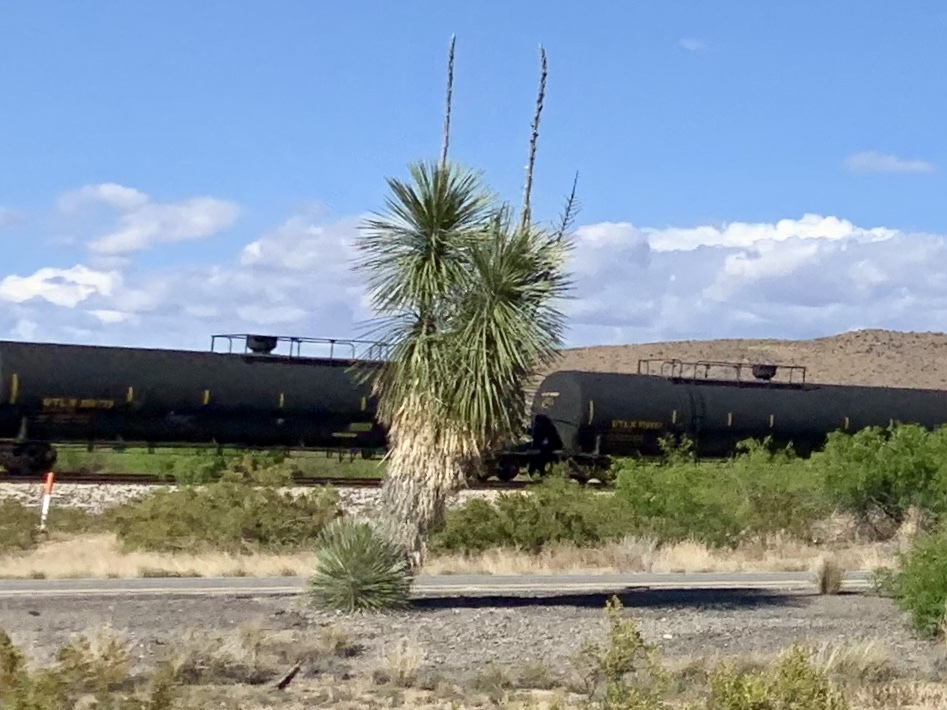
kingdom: Plantae
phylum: Tracheophyta
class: Liliopsida
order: Asparagales
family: Asparagaceae
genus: Yucca
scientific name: Yucca elata
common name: Palmella
